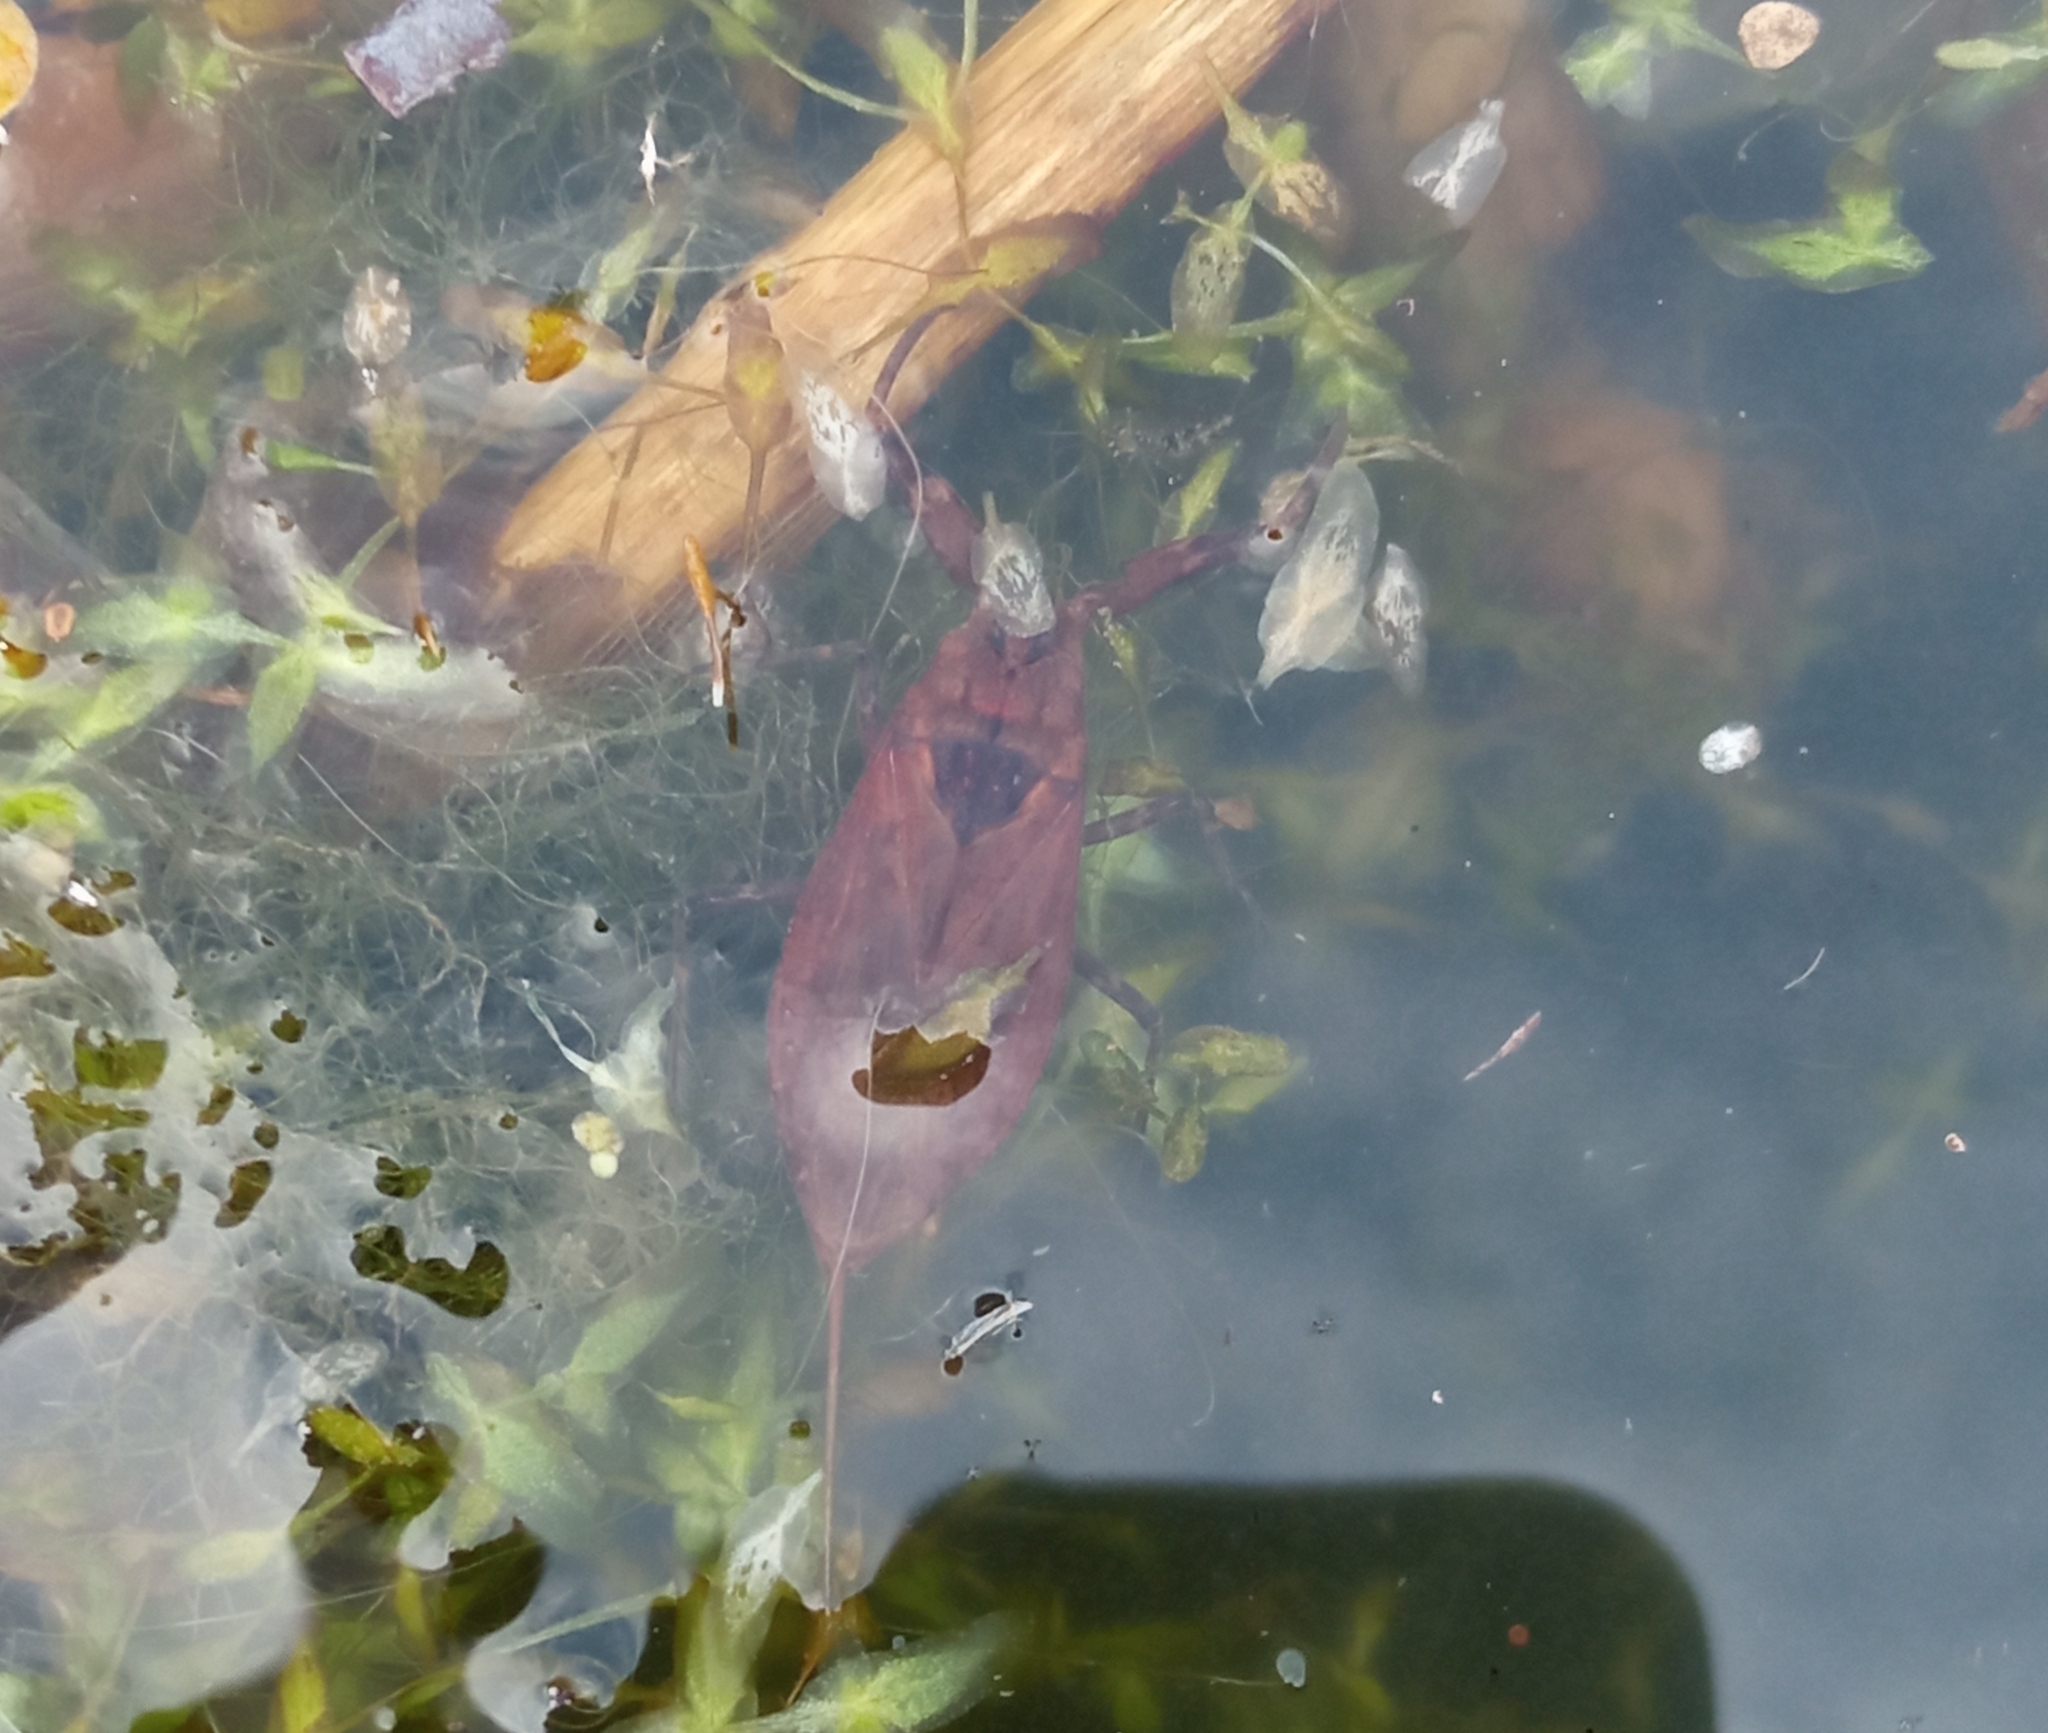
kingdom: Animalia
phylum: Arthropoda
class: Insecta
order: Hemiptera
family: Nepidae
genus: Nepa
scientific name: Nepa cinerea
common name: Water scorpion
